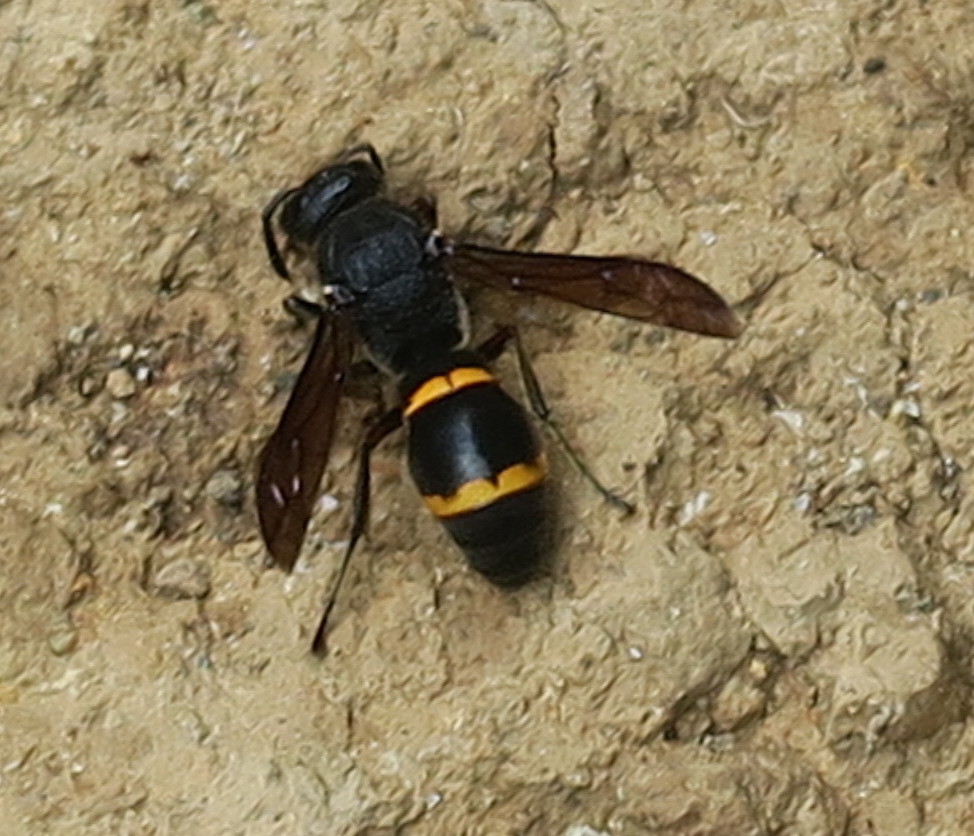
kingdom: Animalia
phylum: Arthropoda
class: Insecta
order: Hymenoptera
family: Eumenidae
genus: Orancistrocerus
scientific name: Orancistrocerus drewseni
